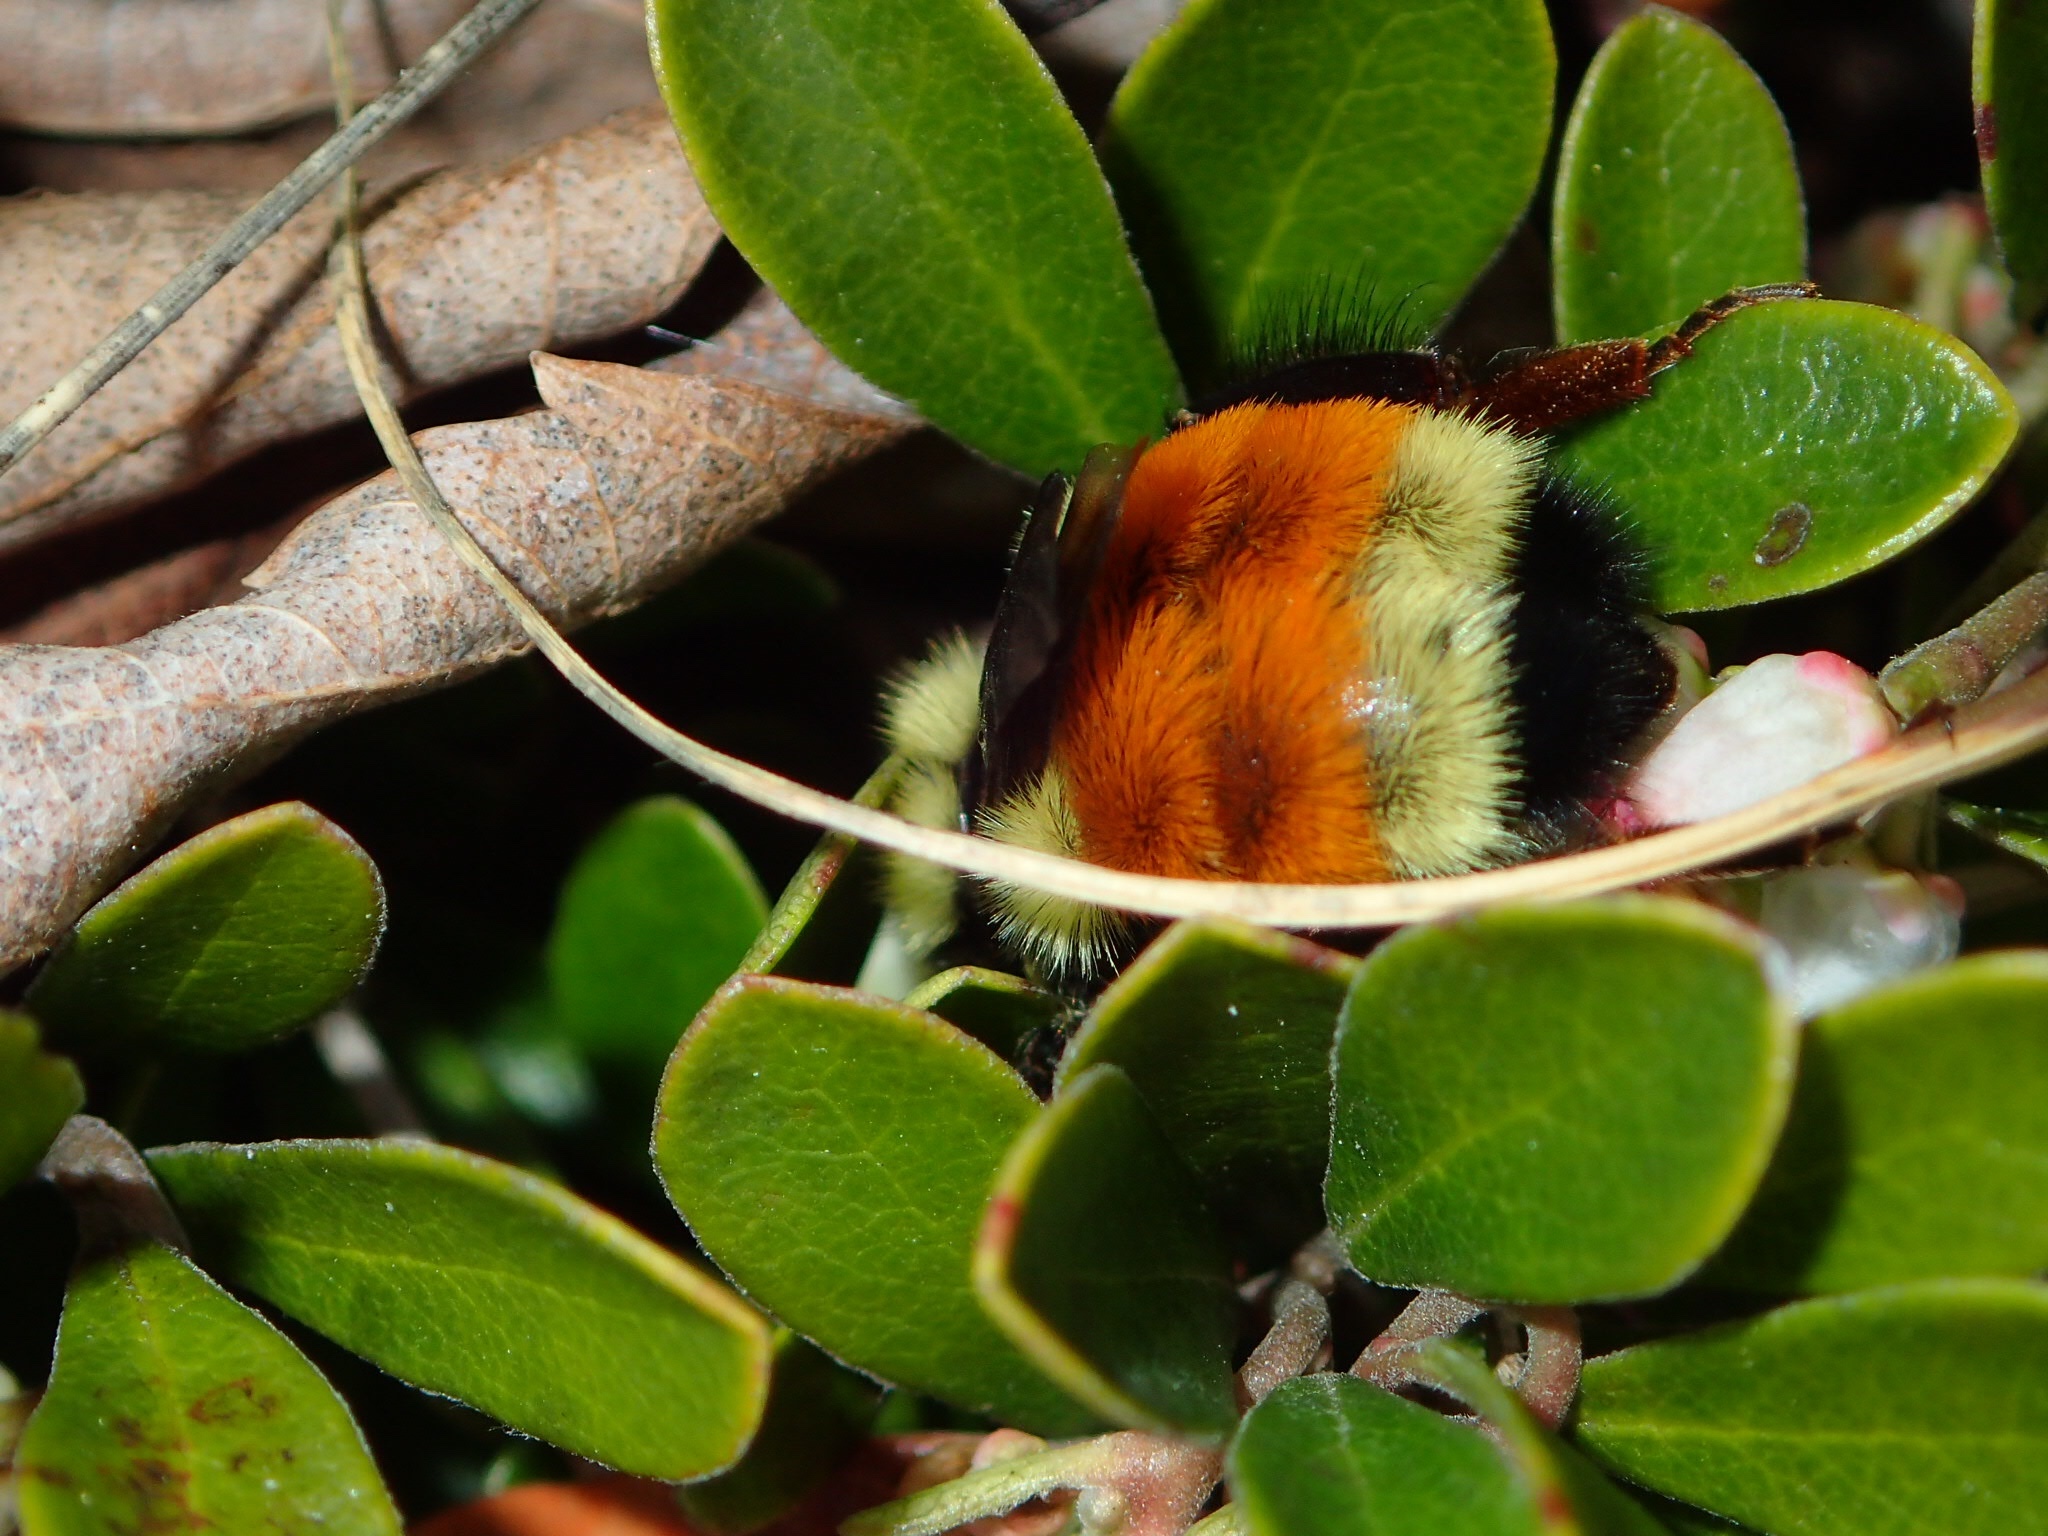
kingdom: Animalia
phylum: Arthropoda
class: Insecta
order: Hymenoptera
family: Apidae
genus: Bombus
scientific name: Bombus ternarius
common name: Tri-colored bumble bee
